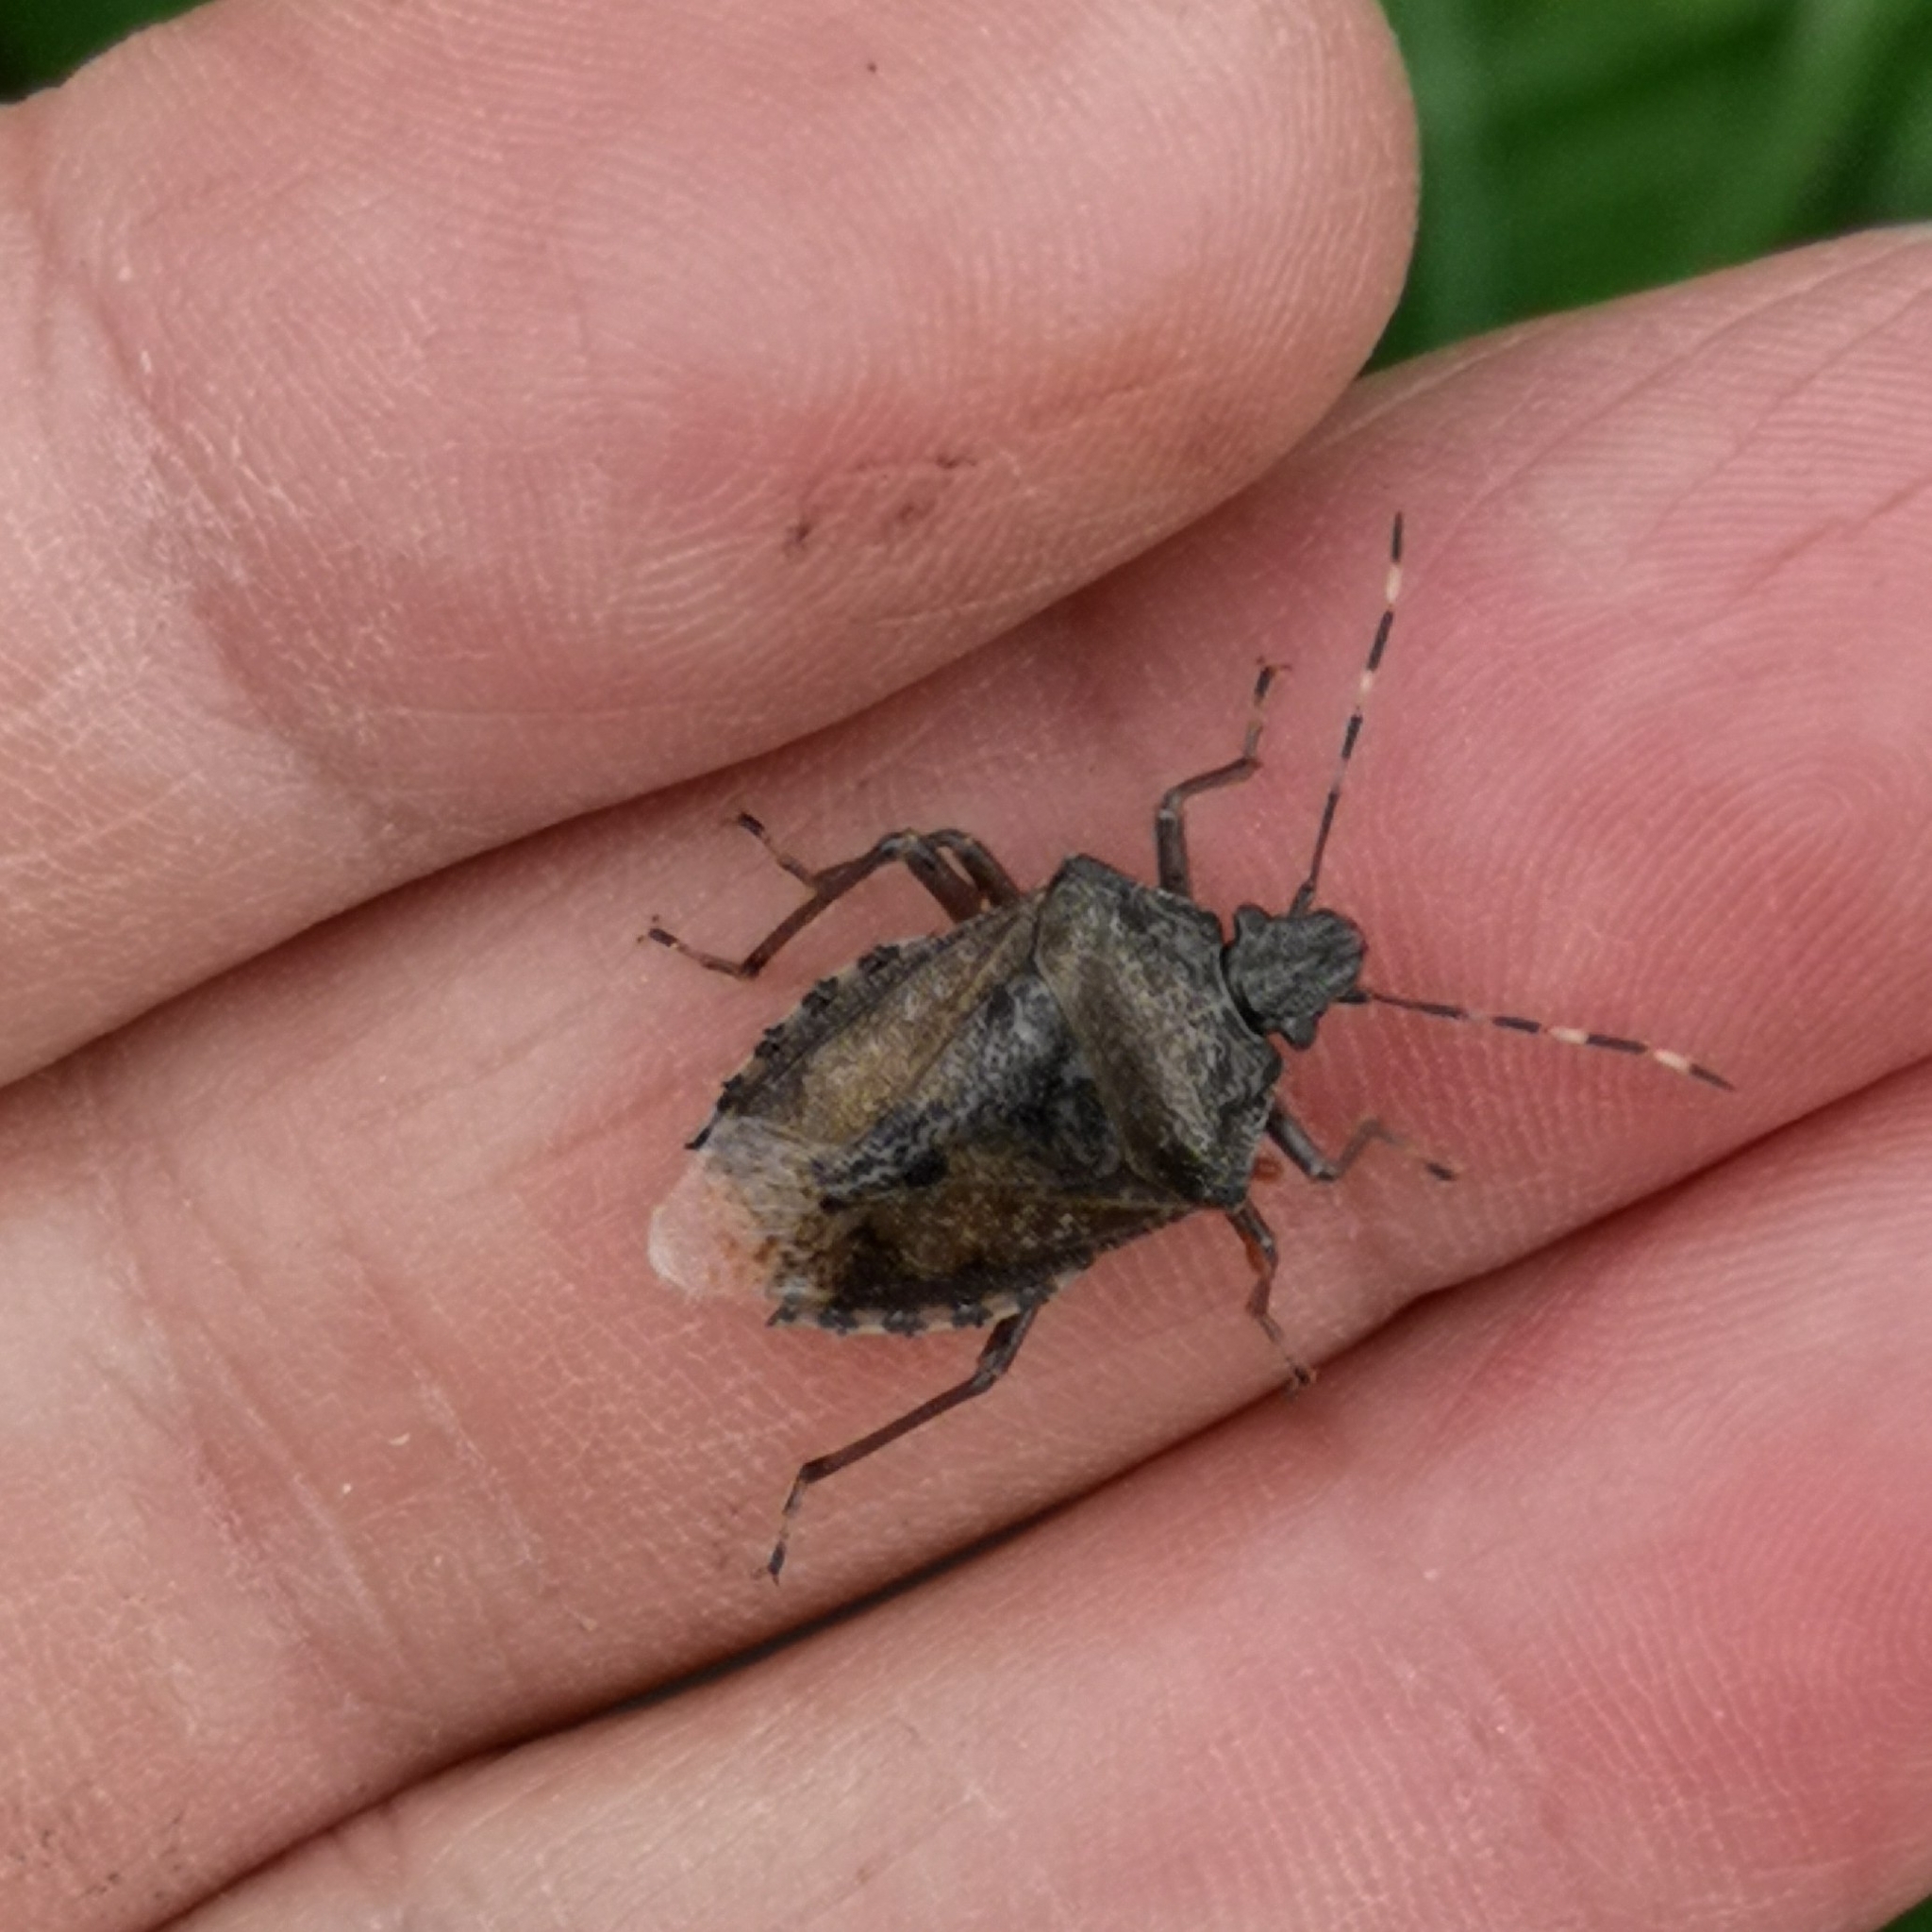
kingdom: Animalia
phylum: Arthropoda
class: Insecta
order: Hemiptera
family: Pentatomidae
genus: Rhaphigaster
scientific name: Rhaphigaster nebulosa
